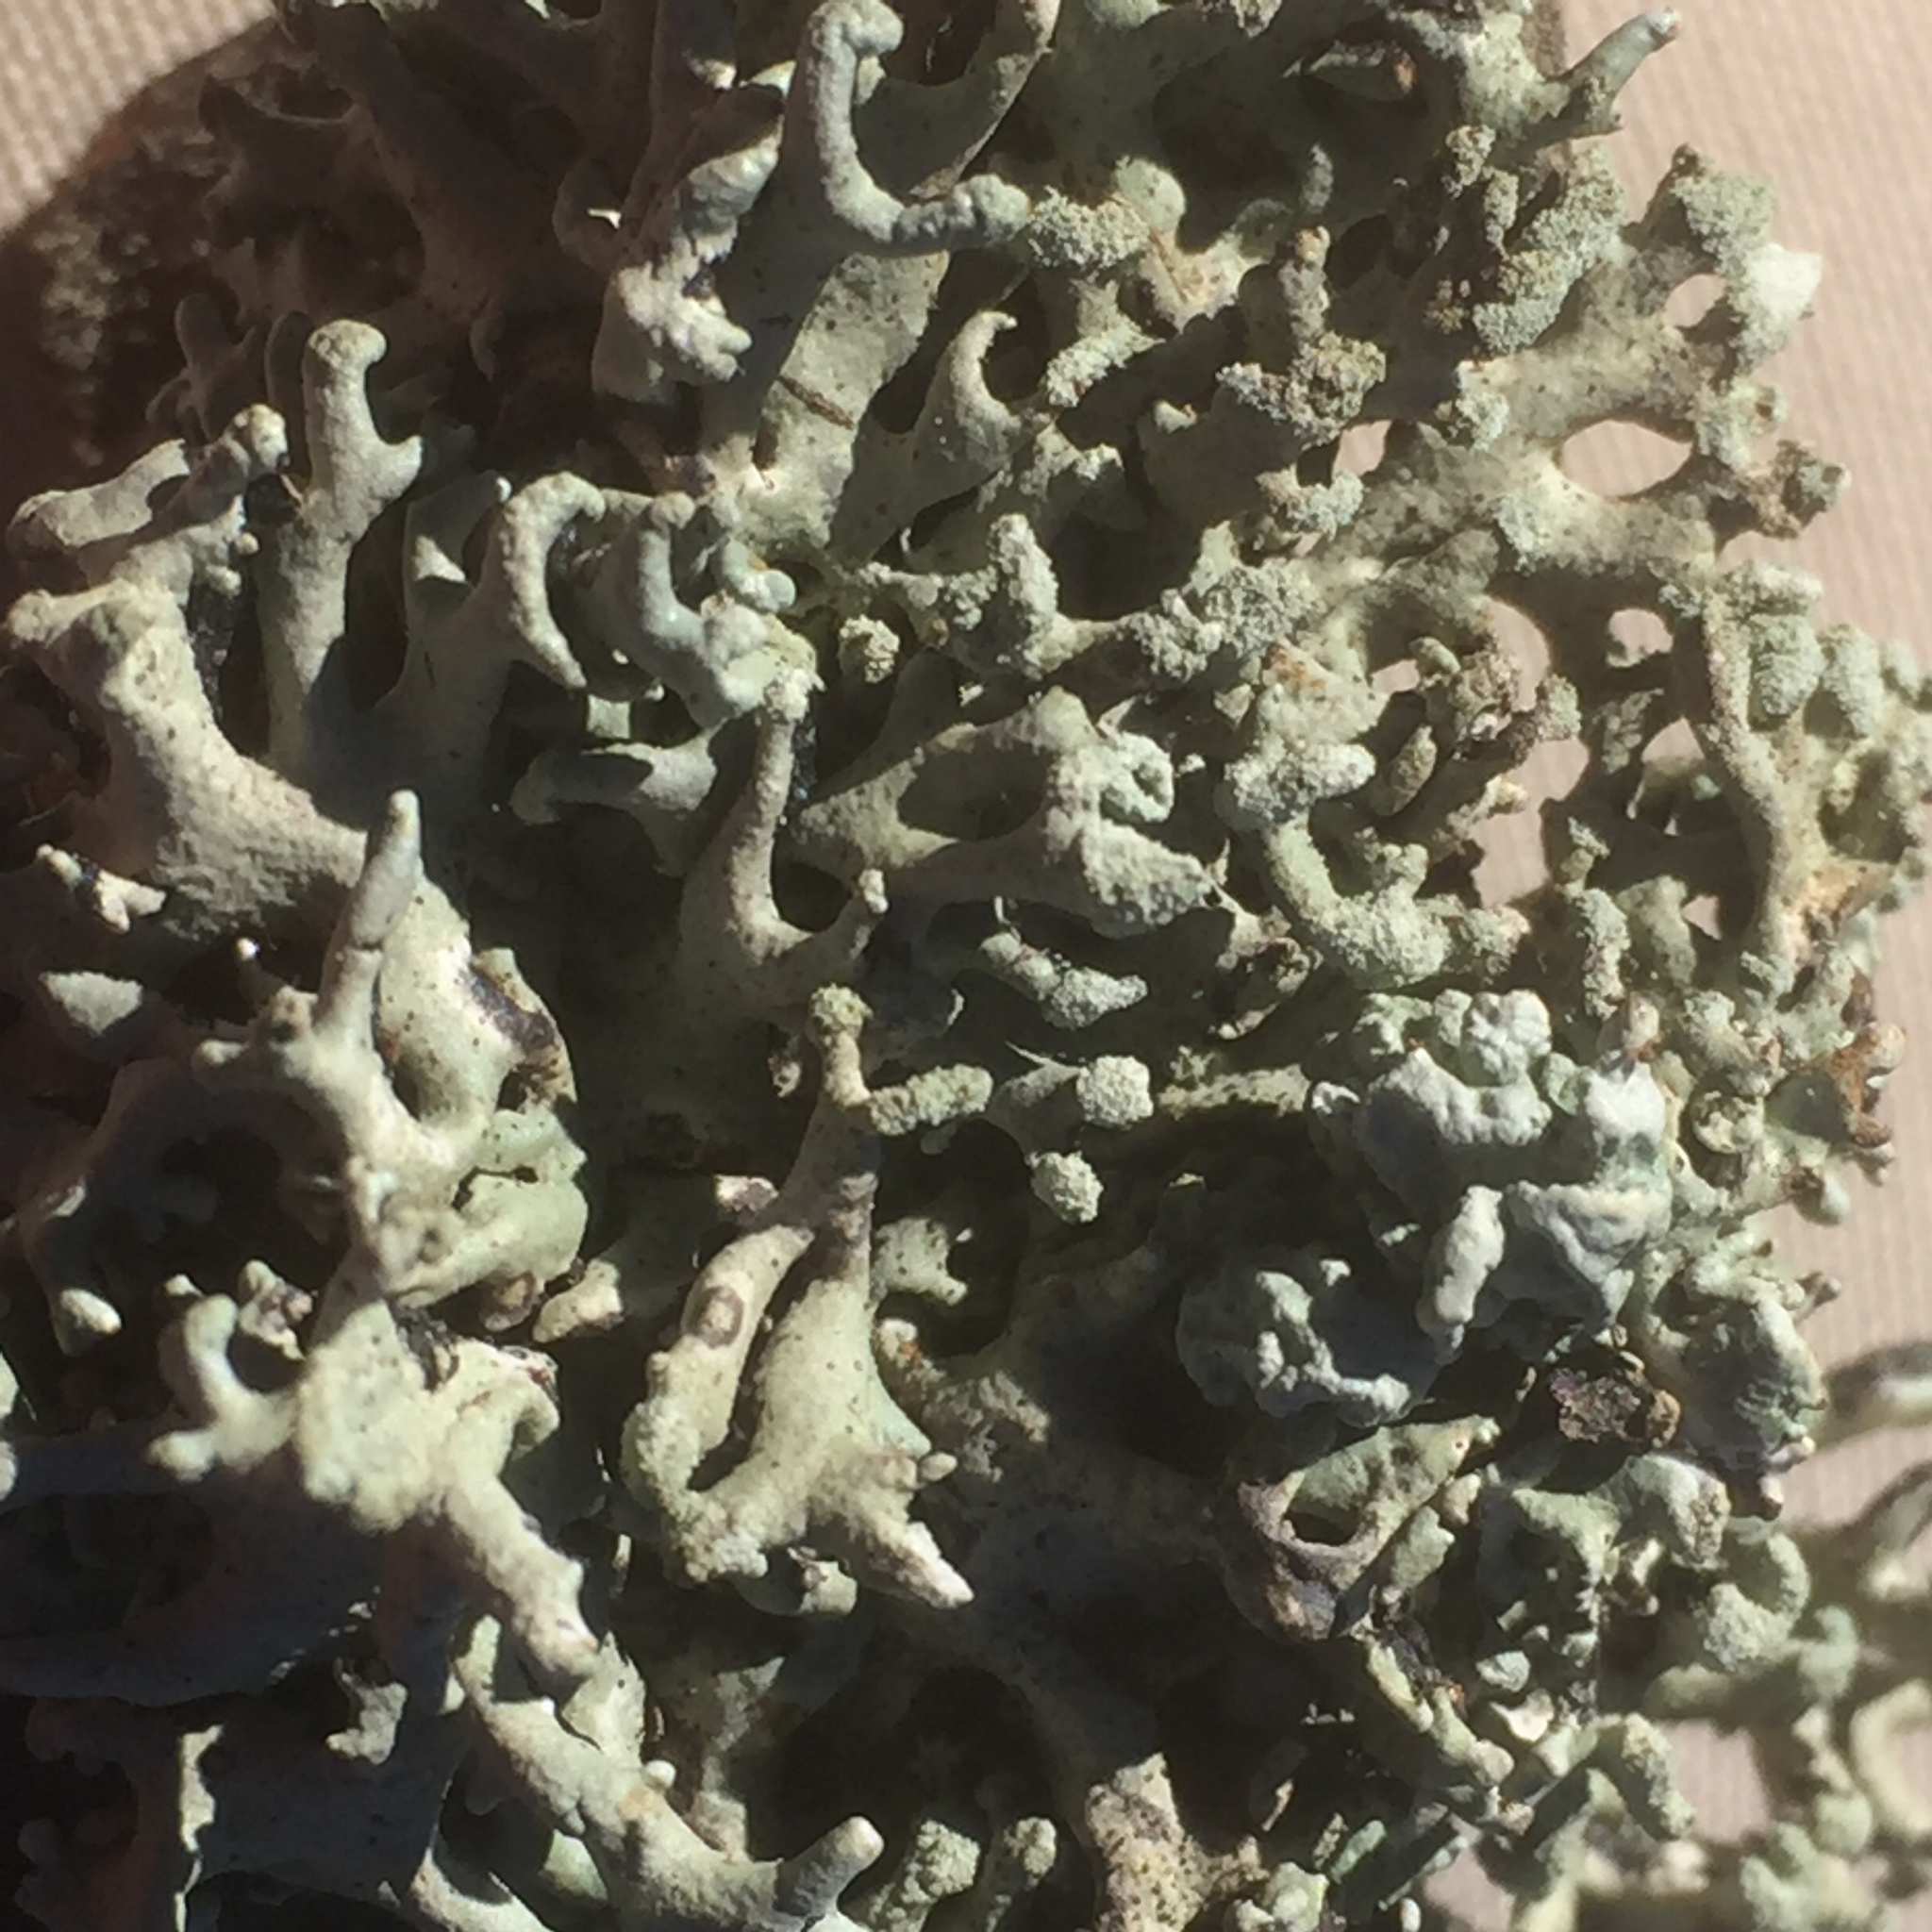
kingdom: Fungi
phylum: Ascomycota
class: Lecanoromycetes
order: Lecanorales
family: Parmeliaceae
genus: Hypogymnia
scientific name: Hypogymnia tubulosa
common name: Powder-headed tube lichen
